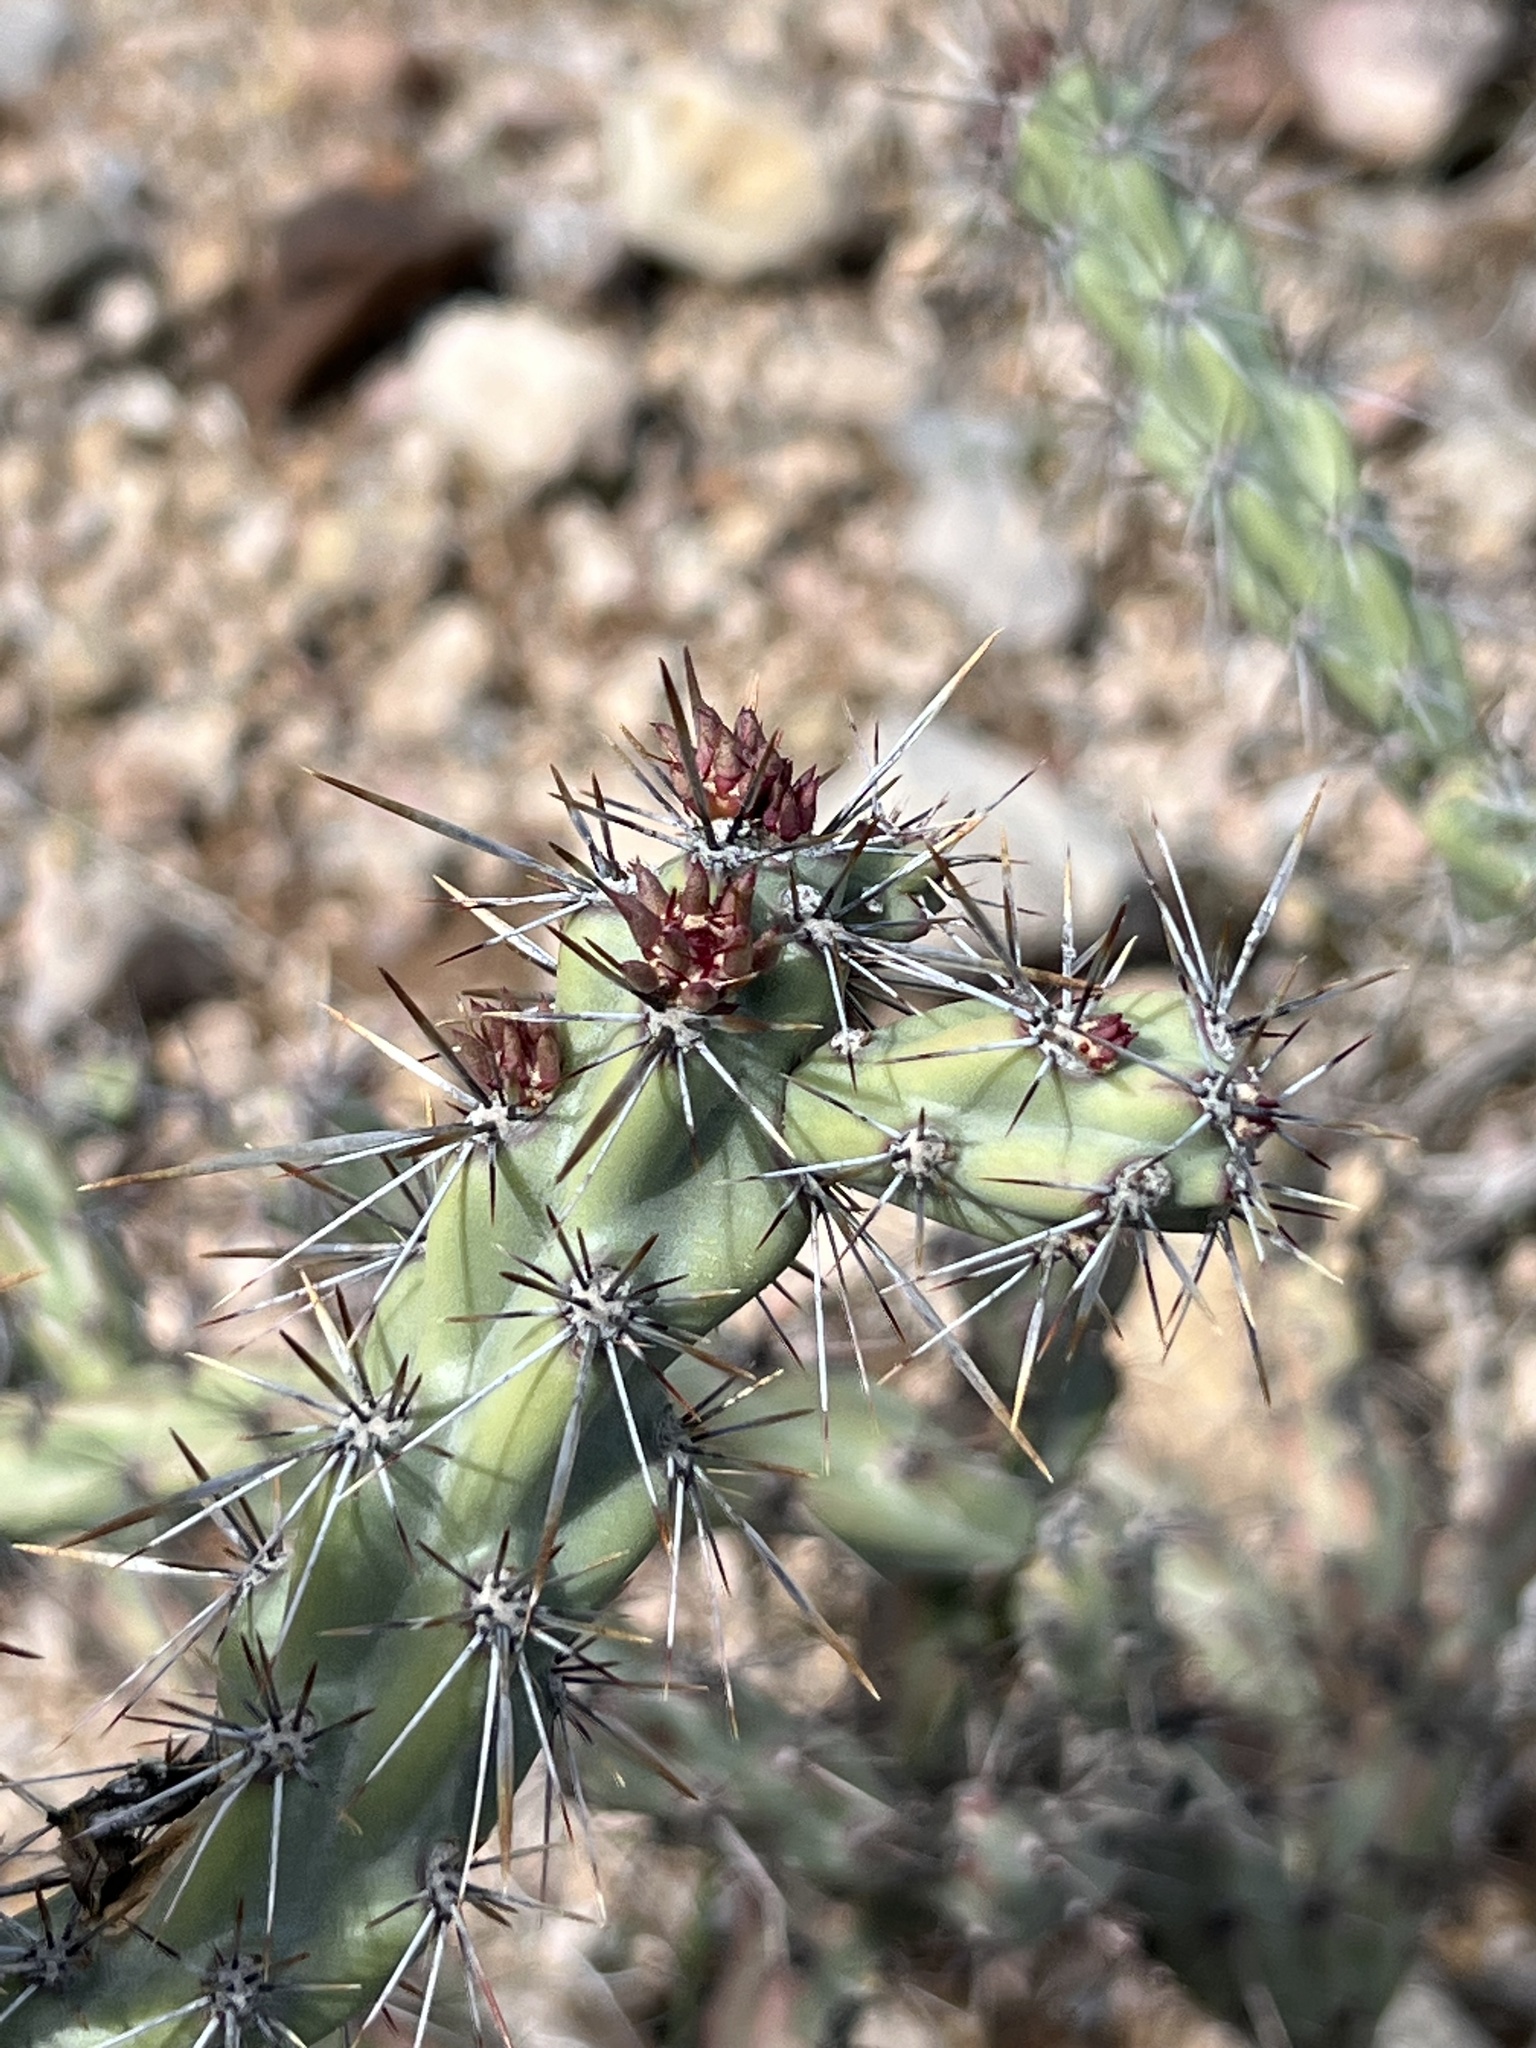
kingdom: Plantae
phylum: Tracheophyta
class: Magnoliopsida
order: Caryophyllales
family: Cactaceae
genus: Cylindropuntia
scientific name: Cylindropuntia acanthocarpa
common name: Buckhorn cholla
